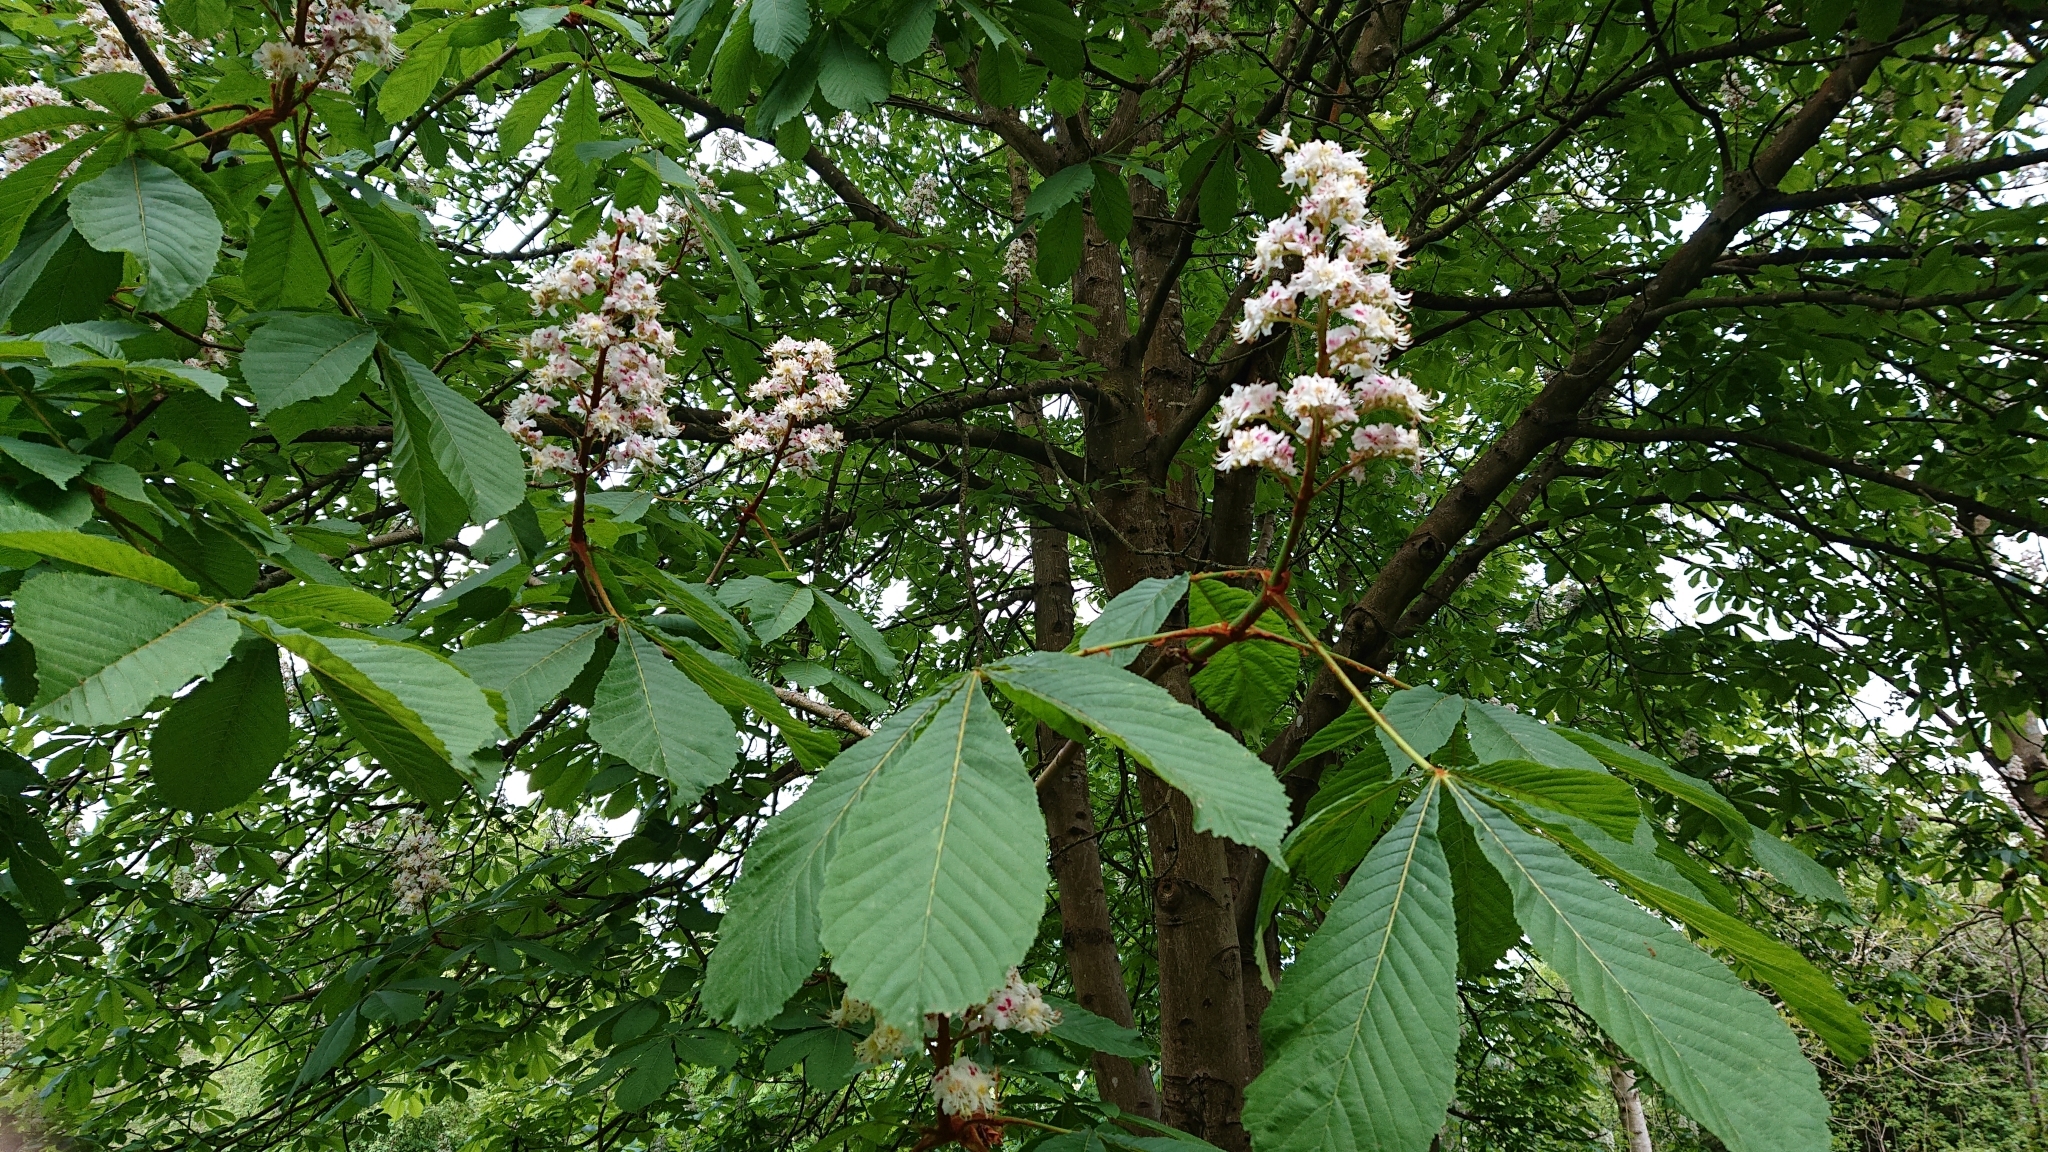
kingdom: Plantae
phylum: Tracheophyta
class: Magnoliopsida
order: Sapindales
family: Sapindaceae
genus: Aesculus
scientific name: Aesculus hippocastanum
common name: Horse-chestnut
